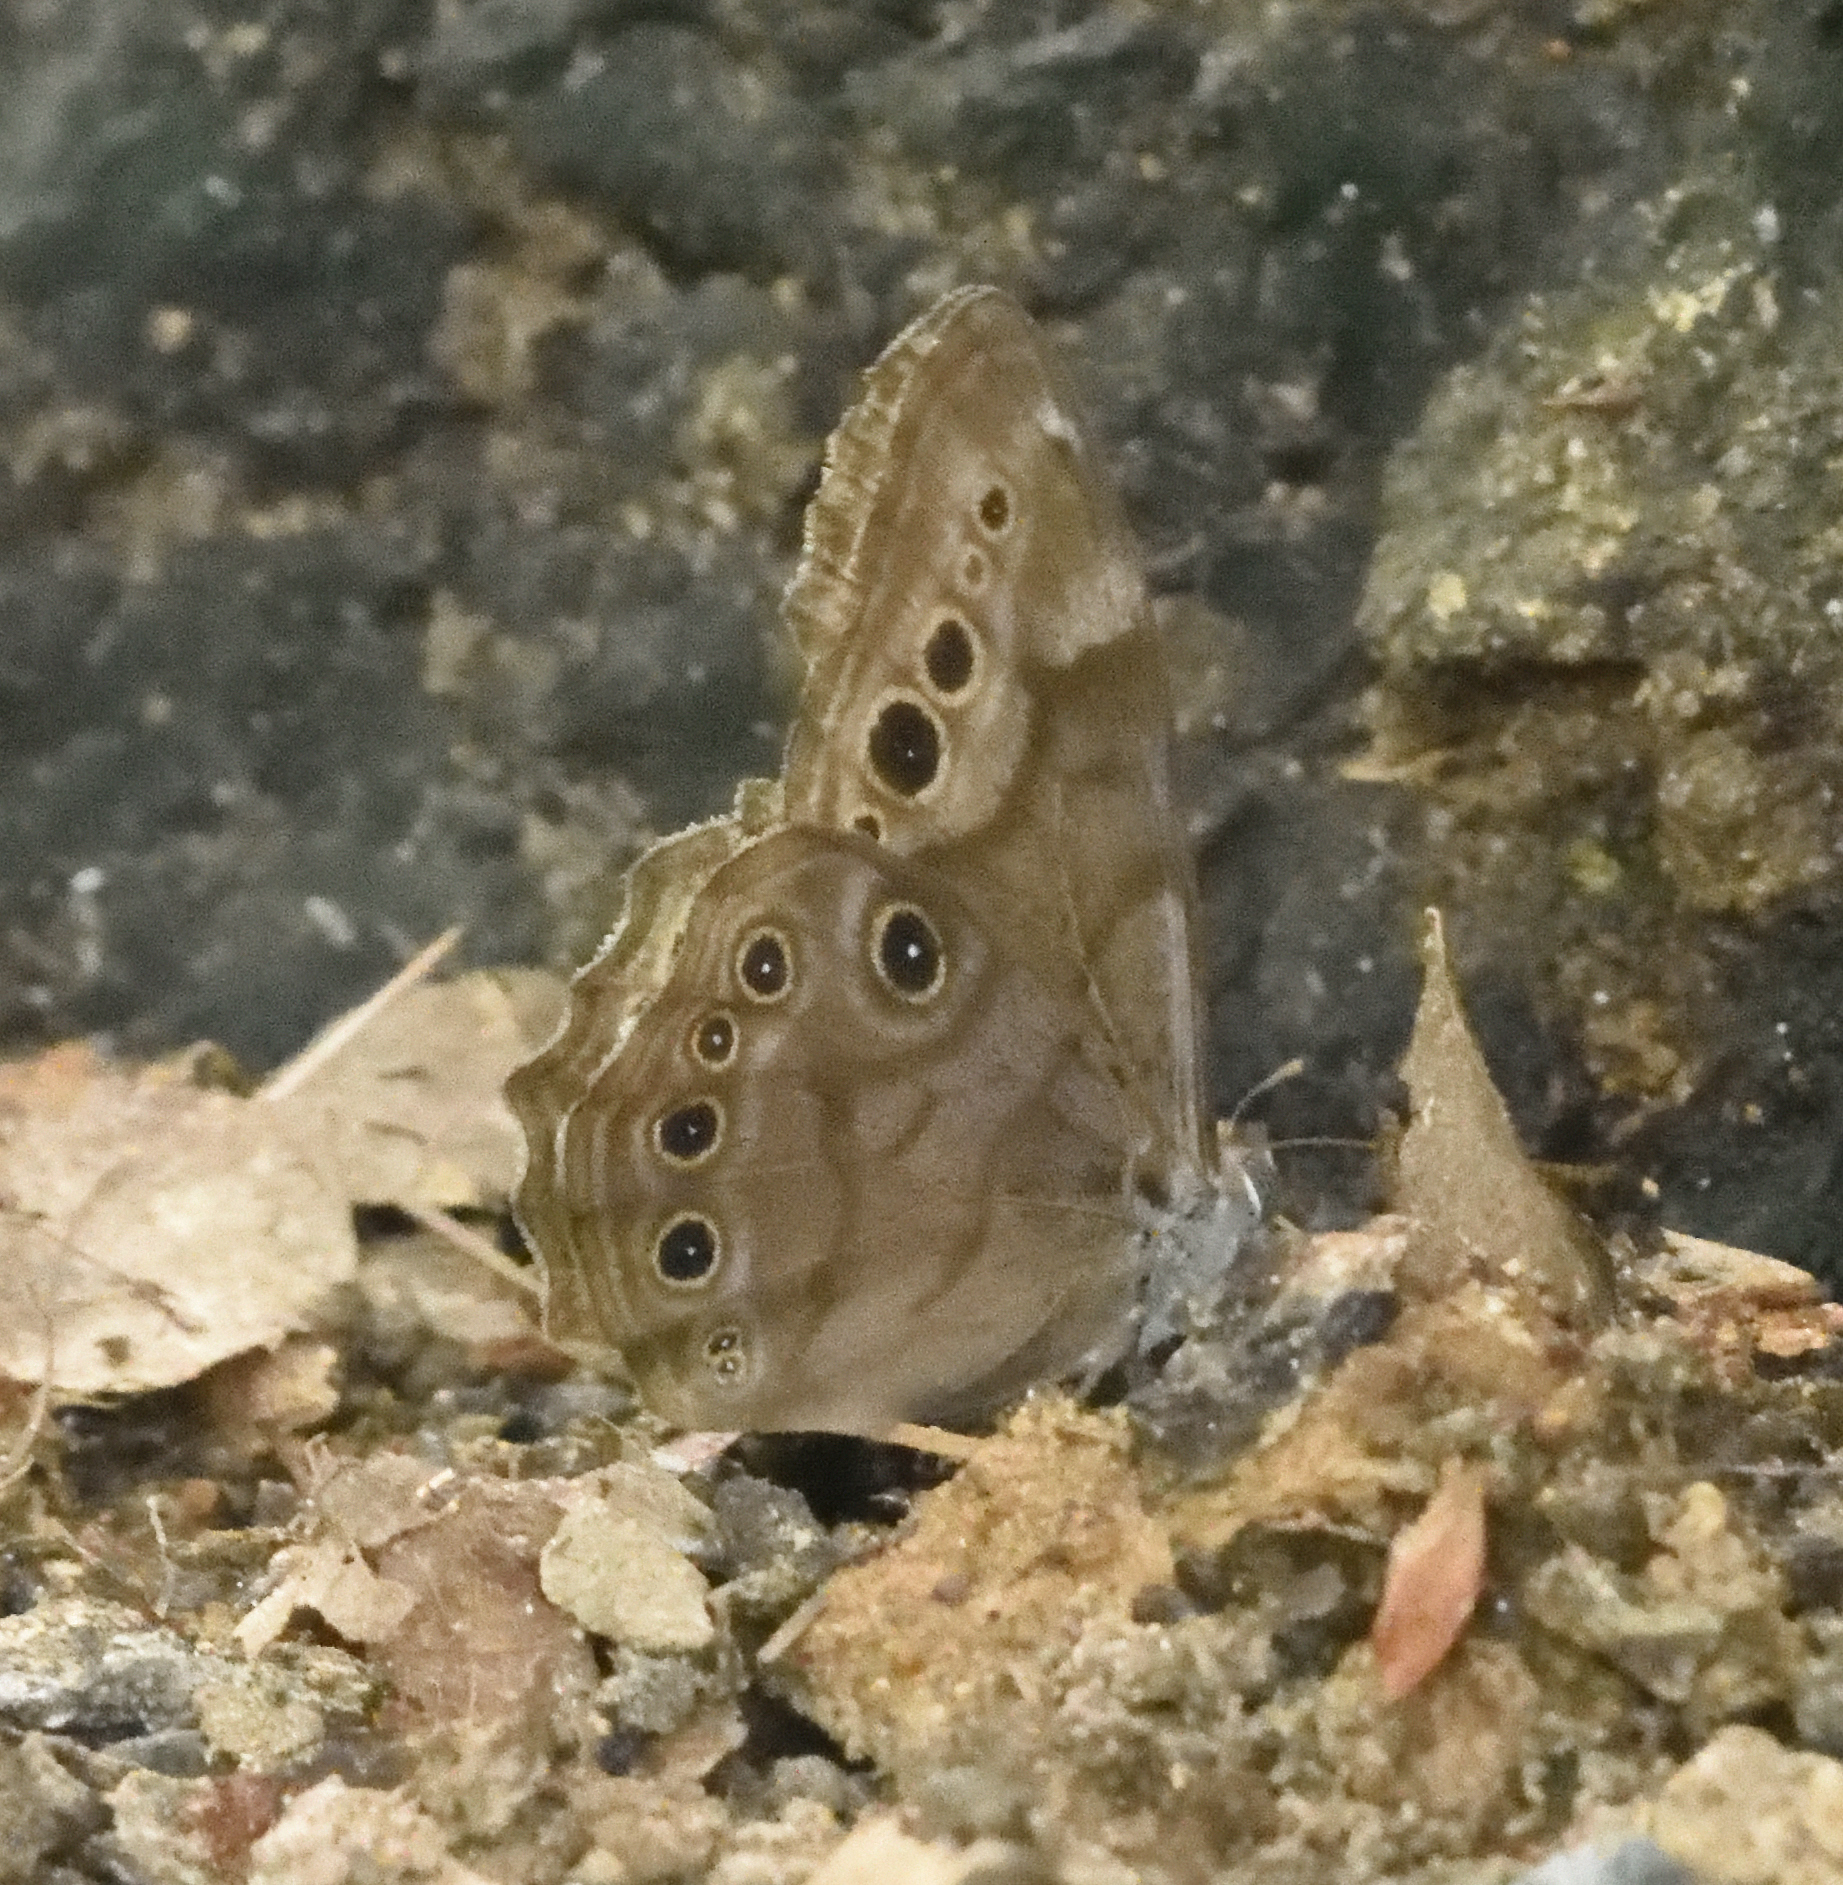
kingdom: Animalia
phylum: Arthropoda
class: Insecta
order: Lepidoptera
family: Nymphalidae
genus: Lethe
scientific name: Lethe anthedon
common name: Northern pearly-eye
